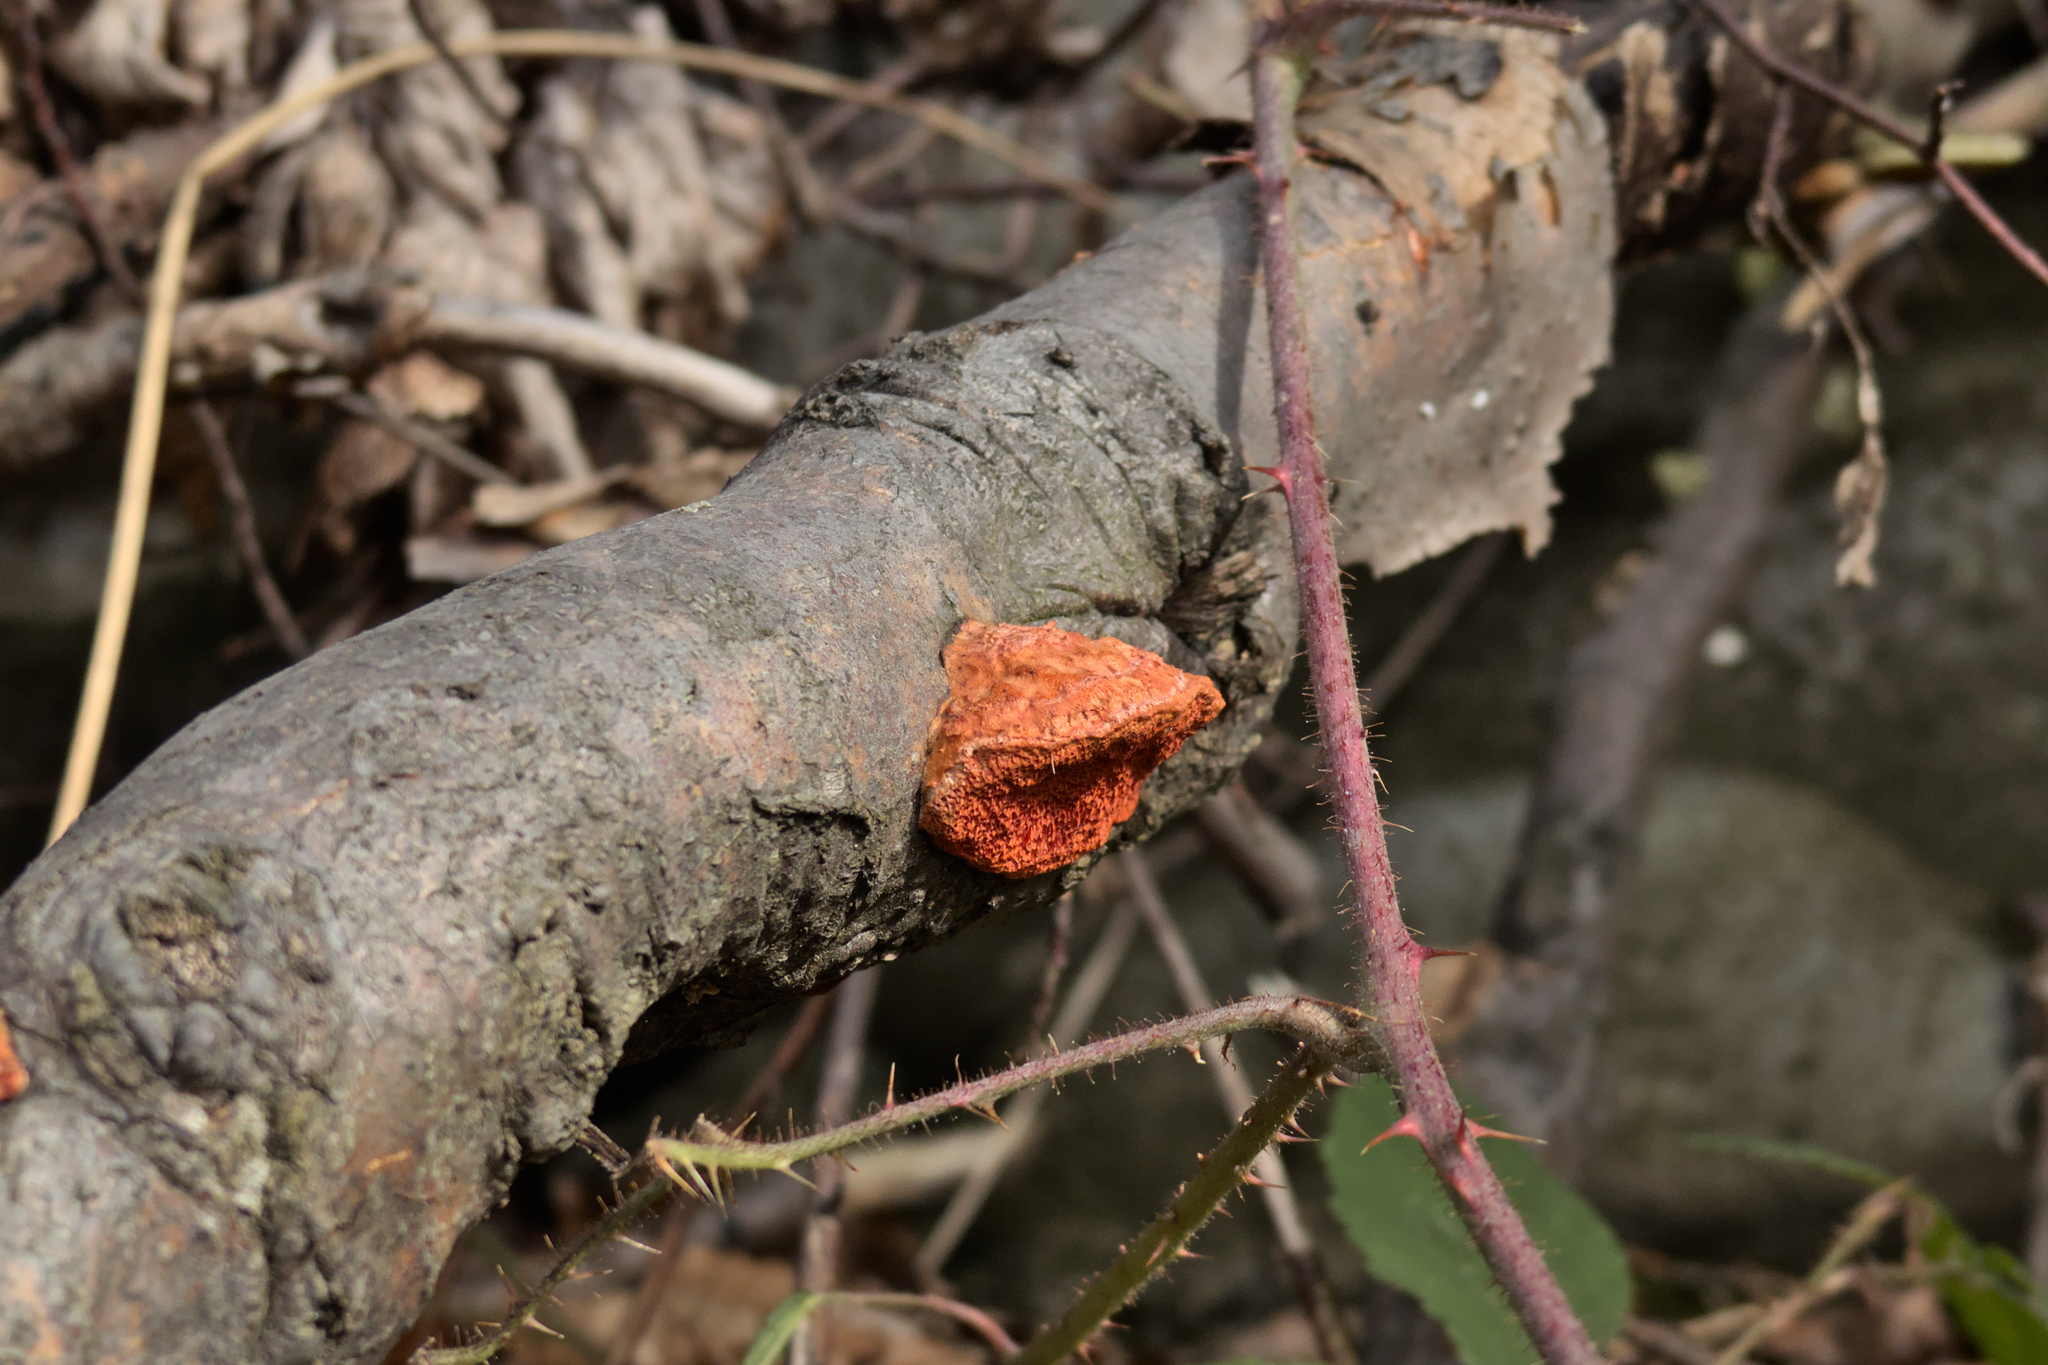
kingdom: Fungi
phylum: Basidiomycota
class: Agaricomycetes
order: Polyporales
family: Polyporaceae
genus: Trametes
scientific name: Trametes cinnabarina
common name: Northern cinnabar polypore
